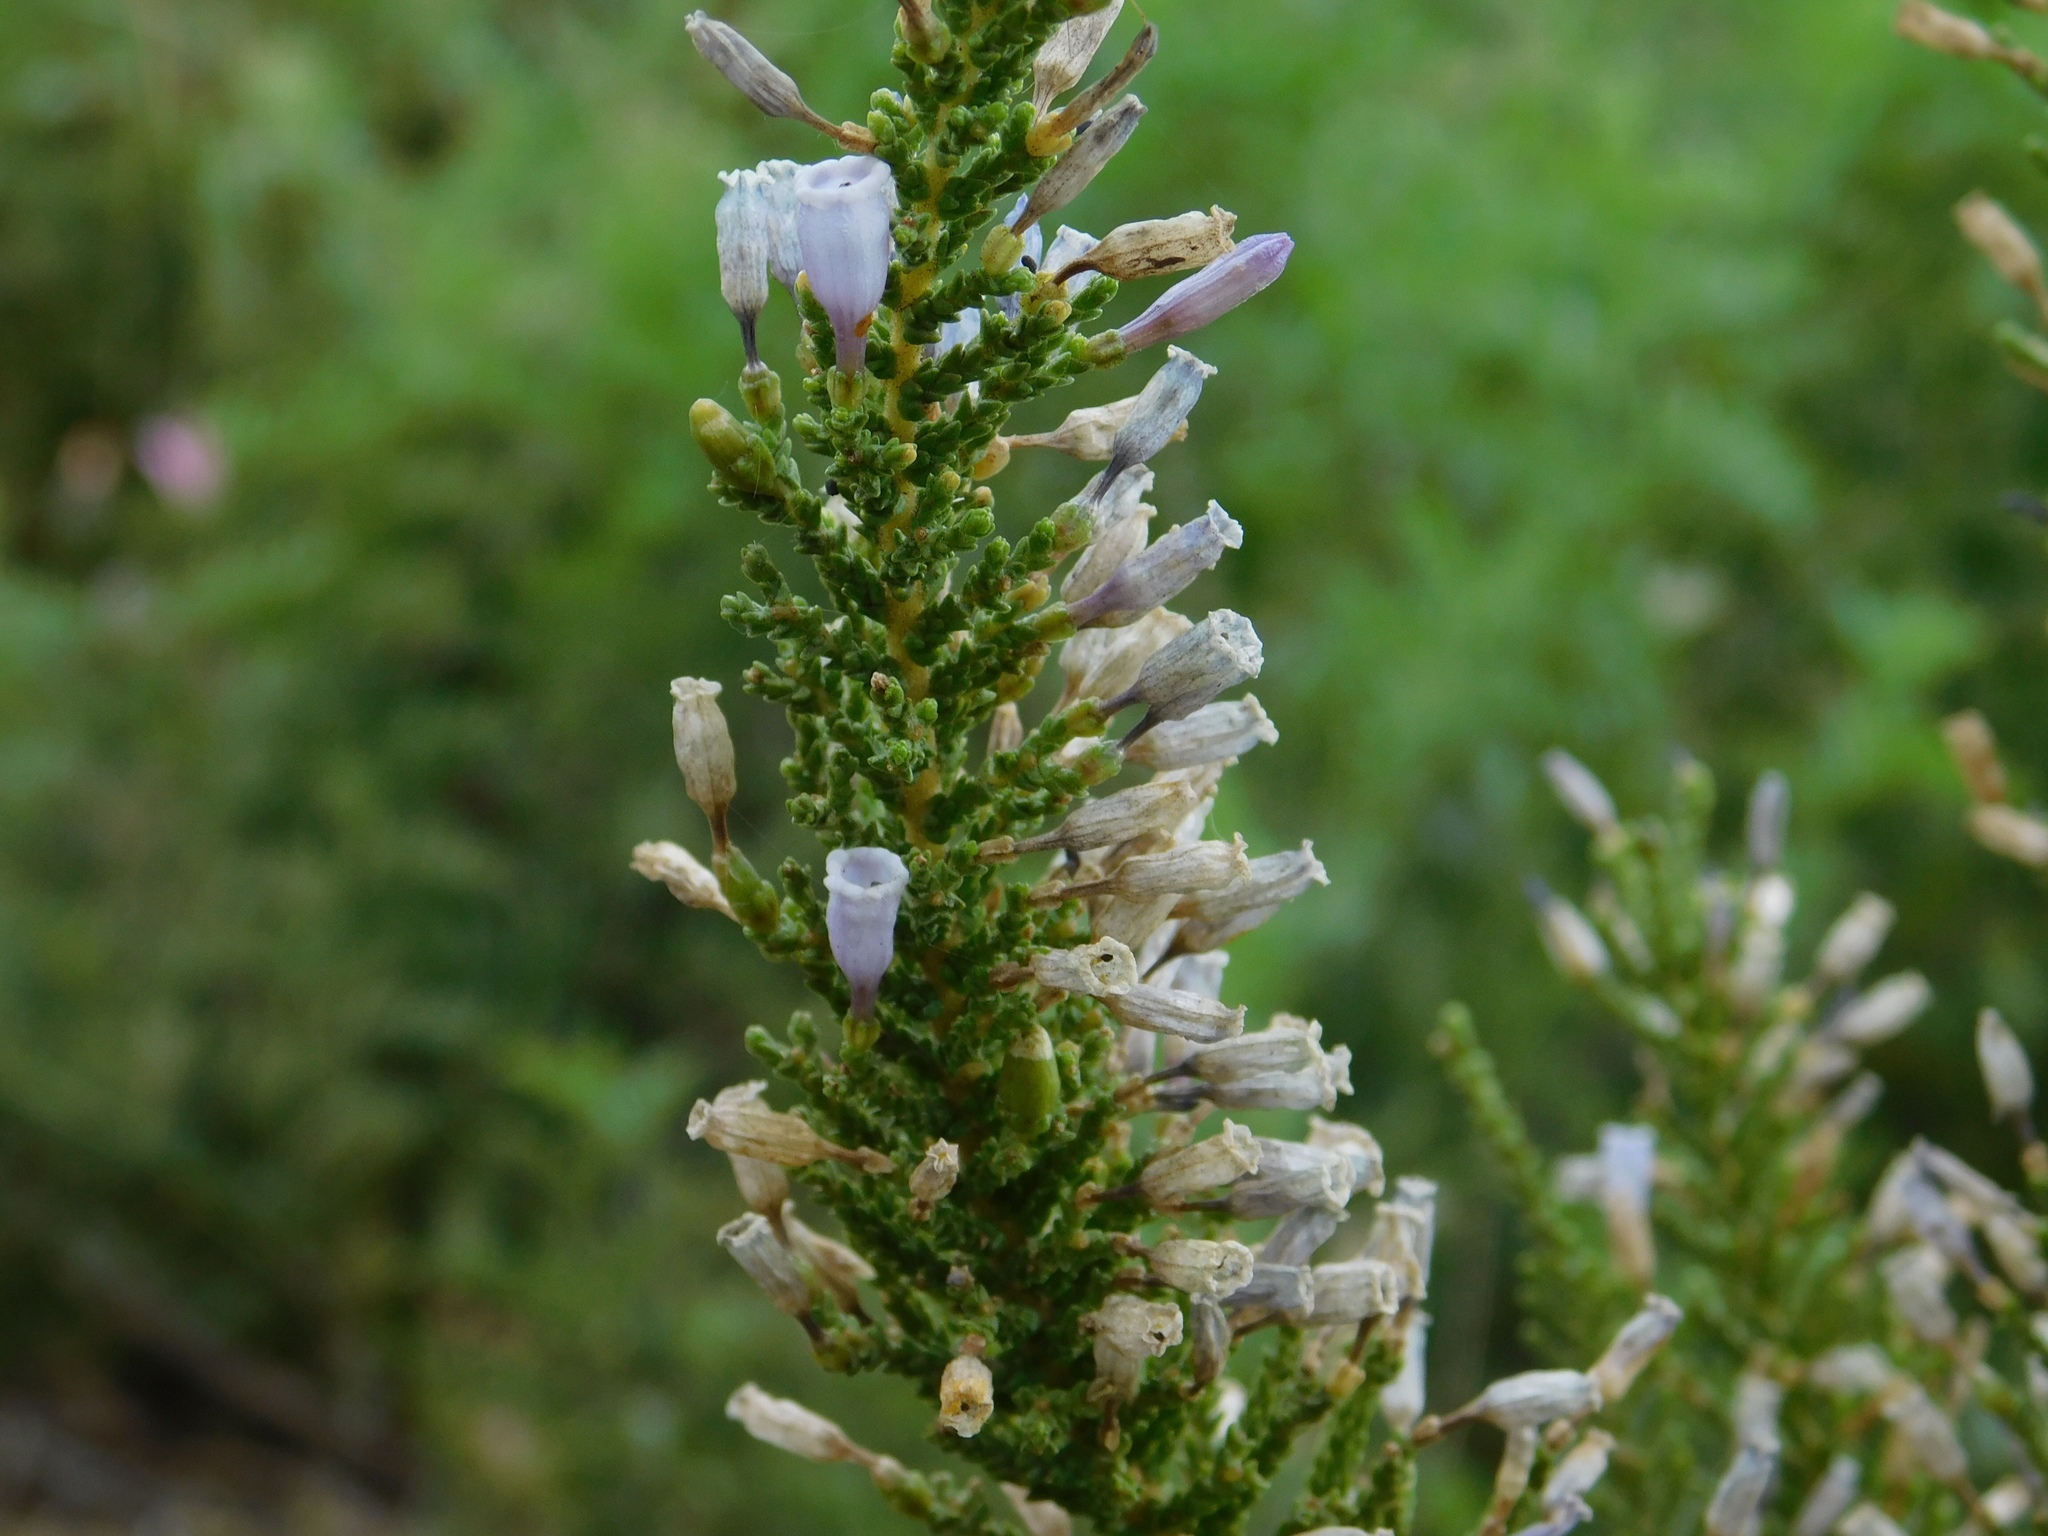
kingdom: Plantae
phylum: Tracheophyta
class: Magnoliopsida
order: Solanales
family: Solanaceae
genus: Fabiana
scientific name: Fabiana imbricata
